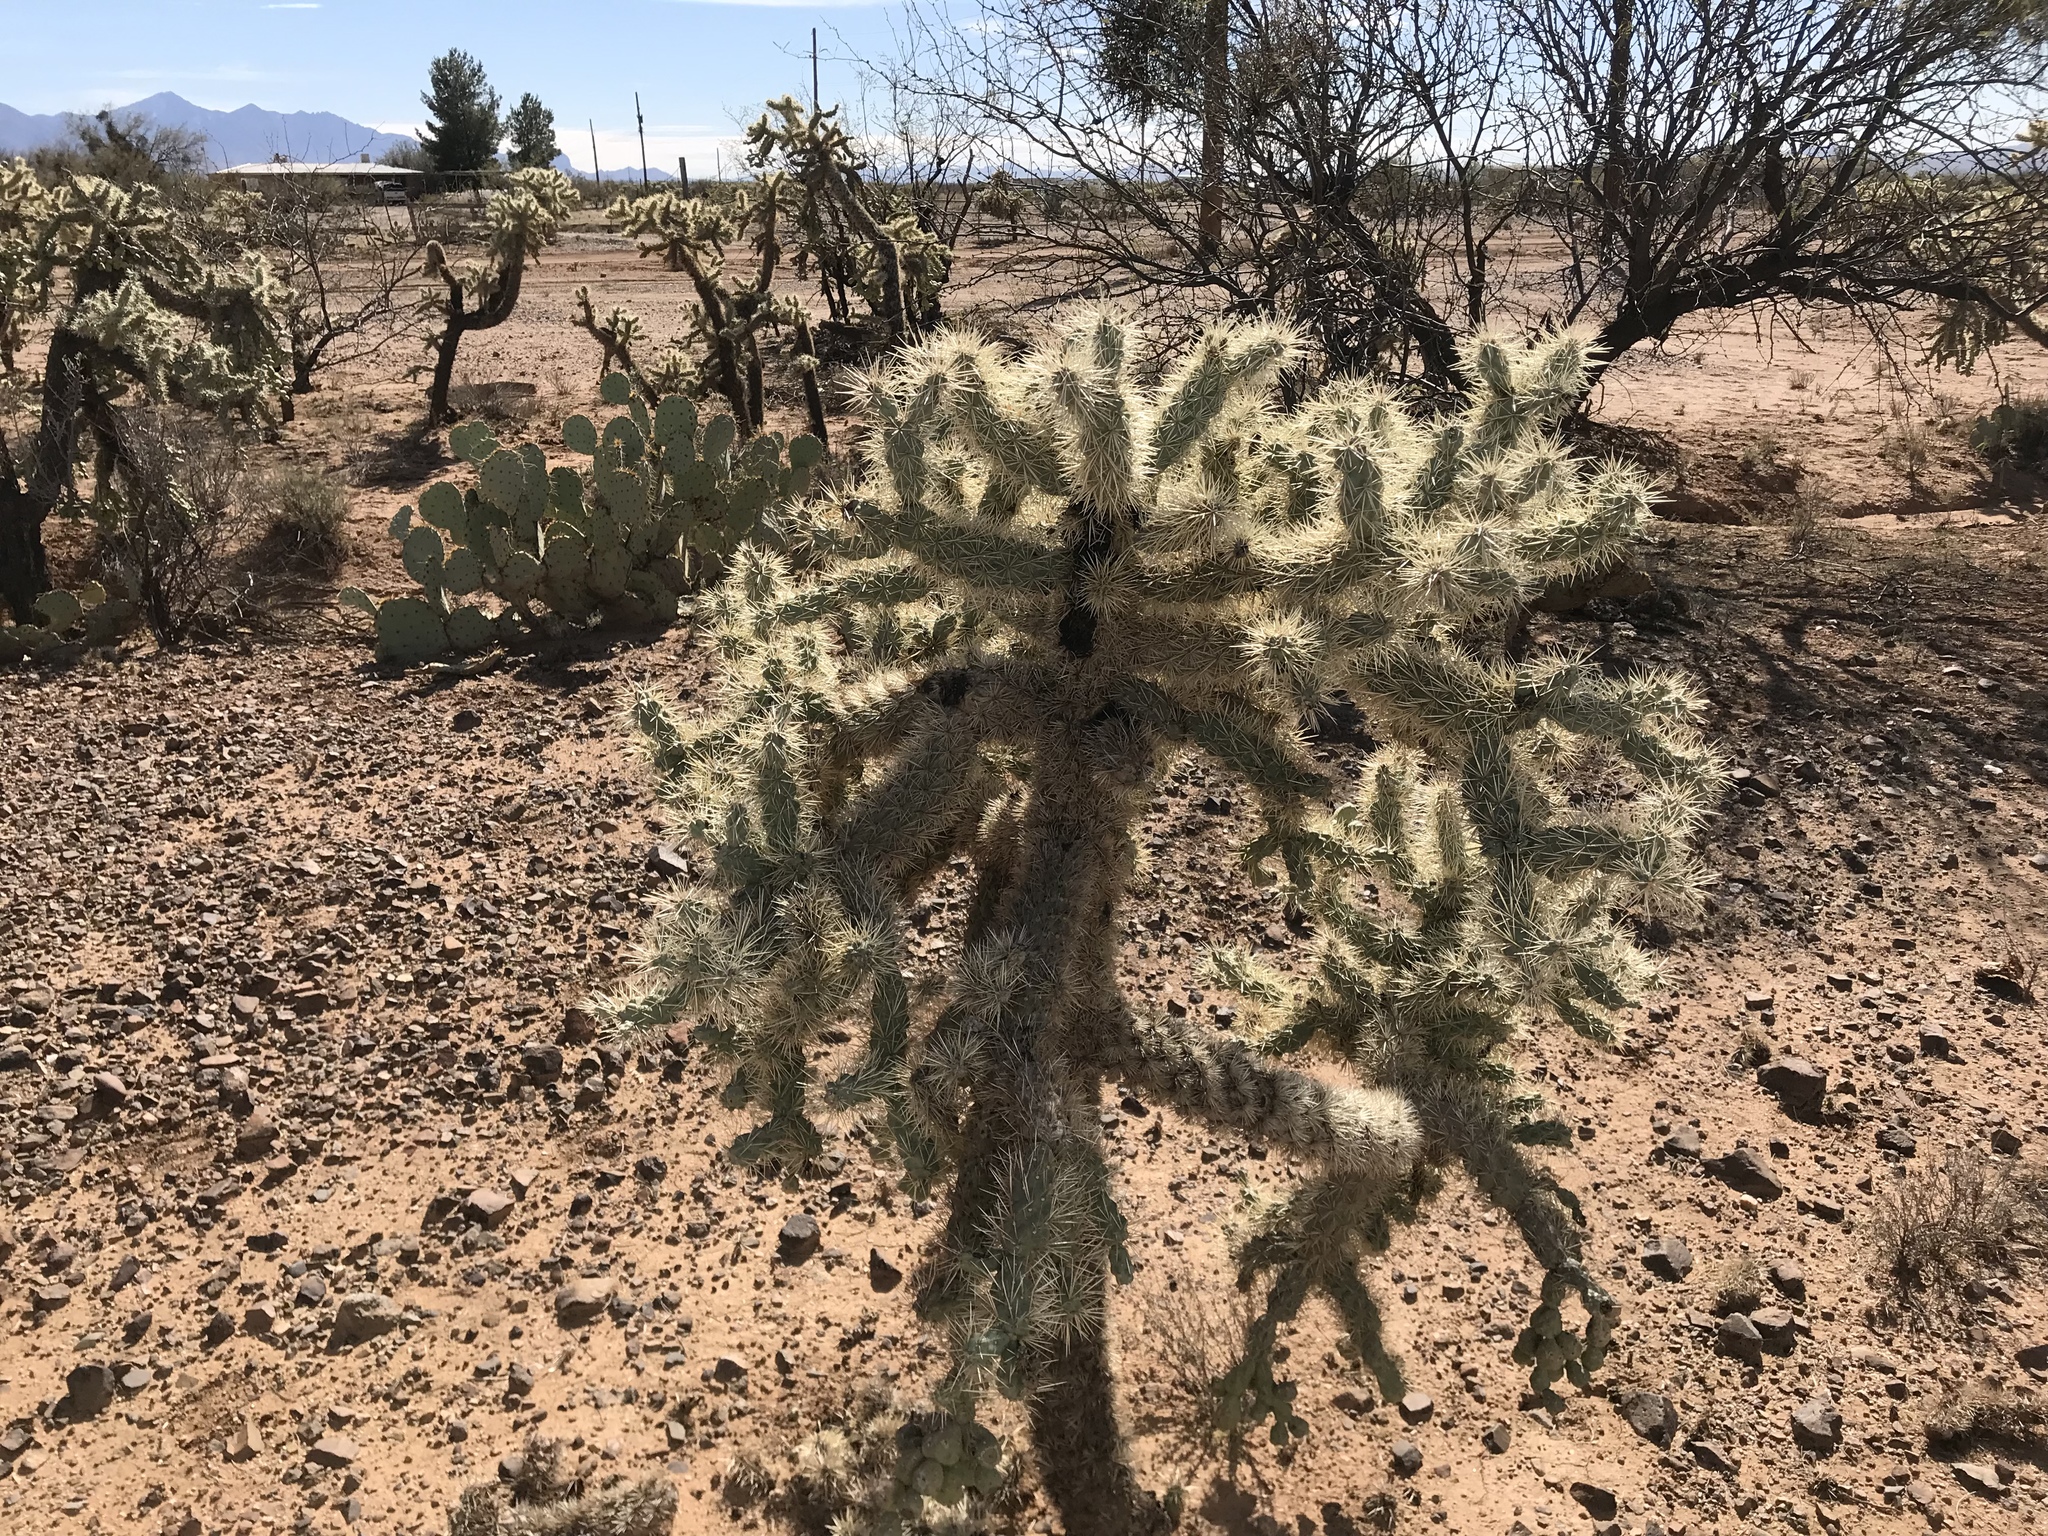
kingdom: Plantae
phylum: Tracheophyta
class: Magnoliopsida
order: Caryophyllales
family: Cactaceae
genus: Cylindropuntia
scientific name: Cylindropuntia fulgida
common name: Jumping cholla
